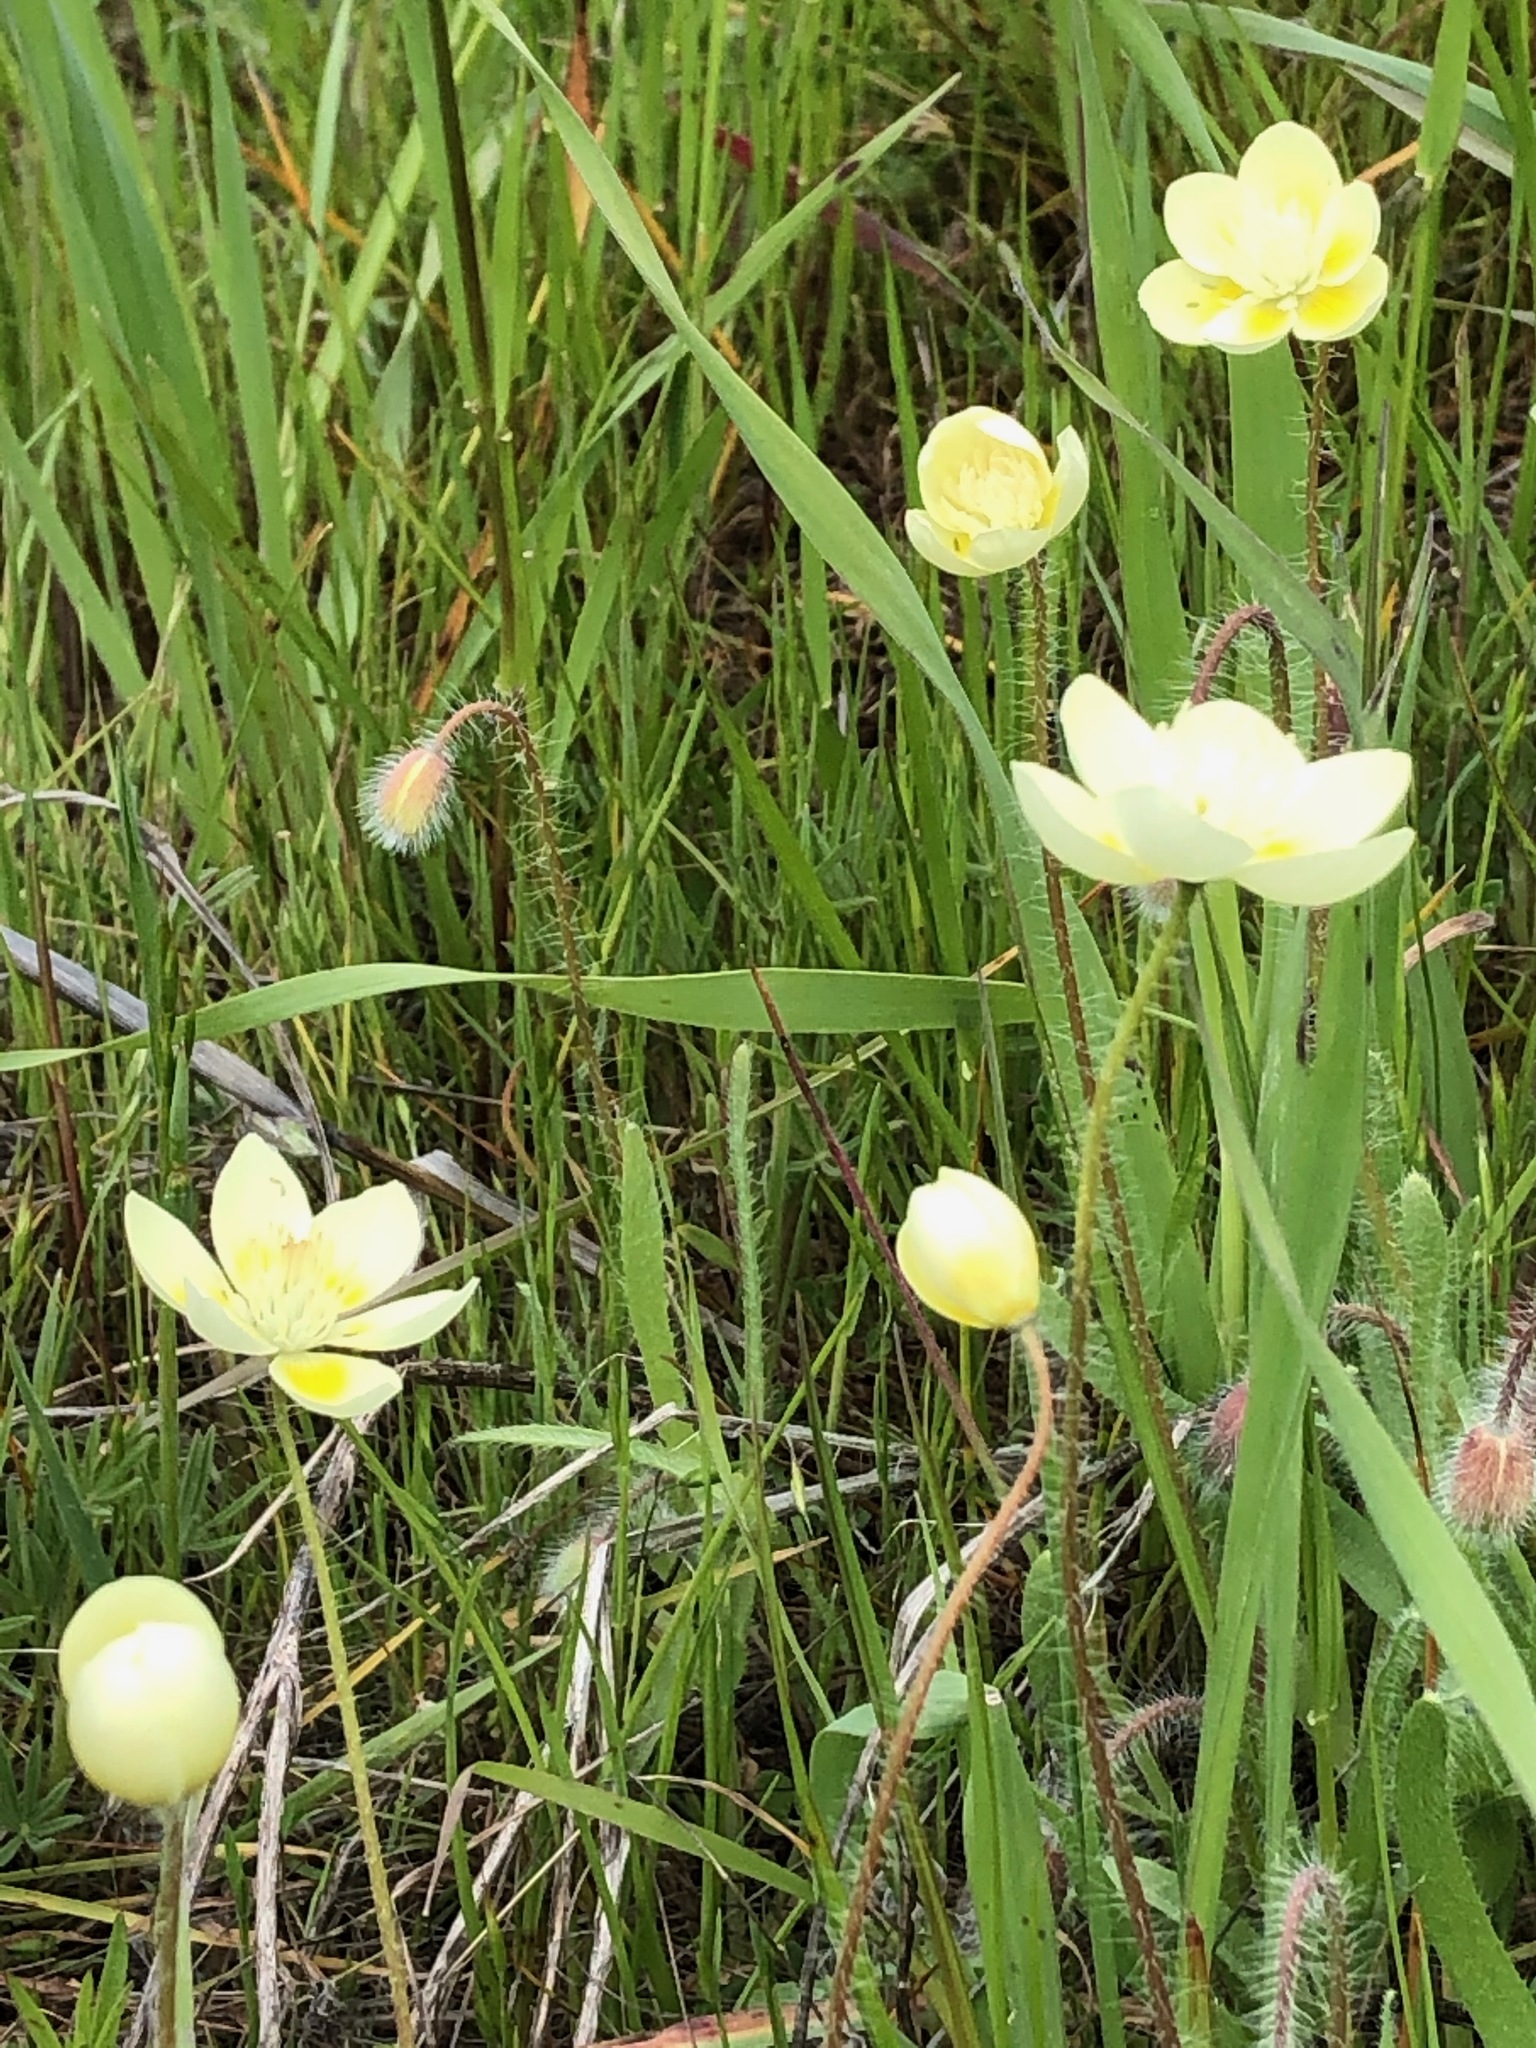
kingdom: Plantae
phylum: Tracheophyta
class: Magnoliopsida
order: Ranunculales
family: Papaveraceae
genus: Platystemon
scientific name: Platystemon californicus
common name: Cream-cups
